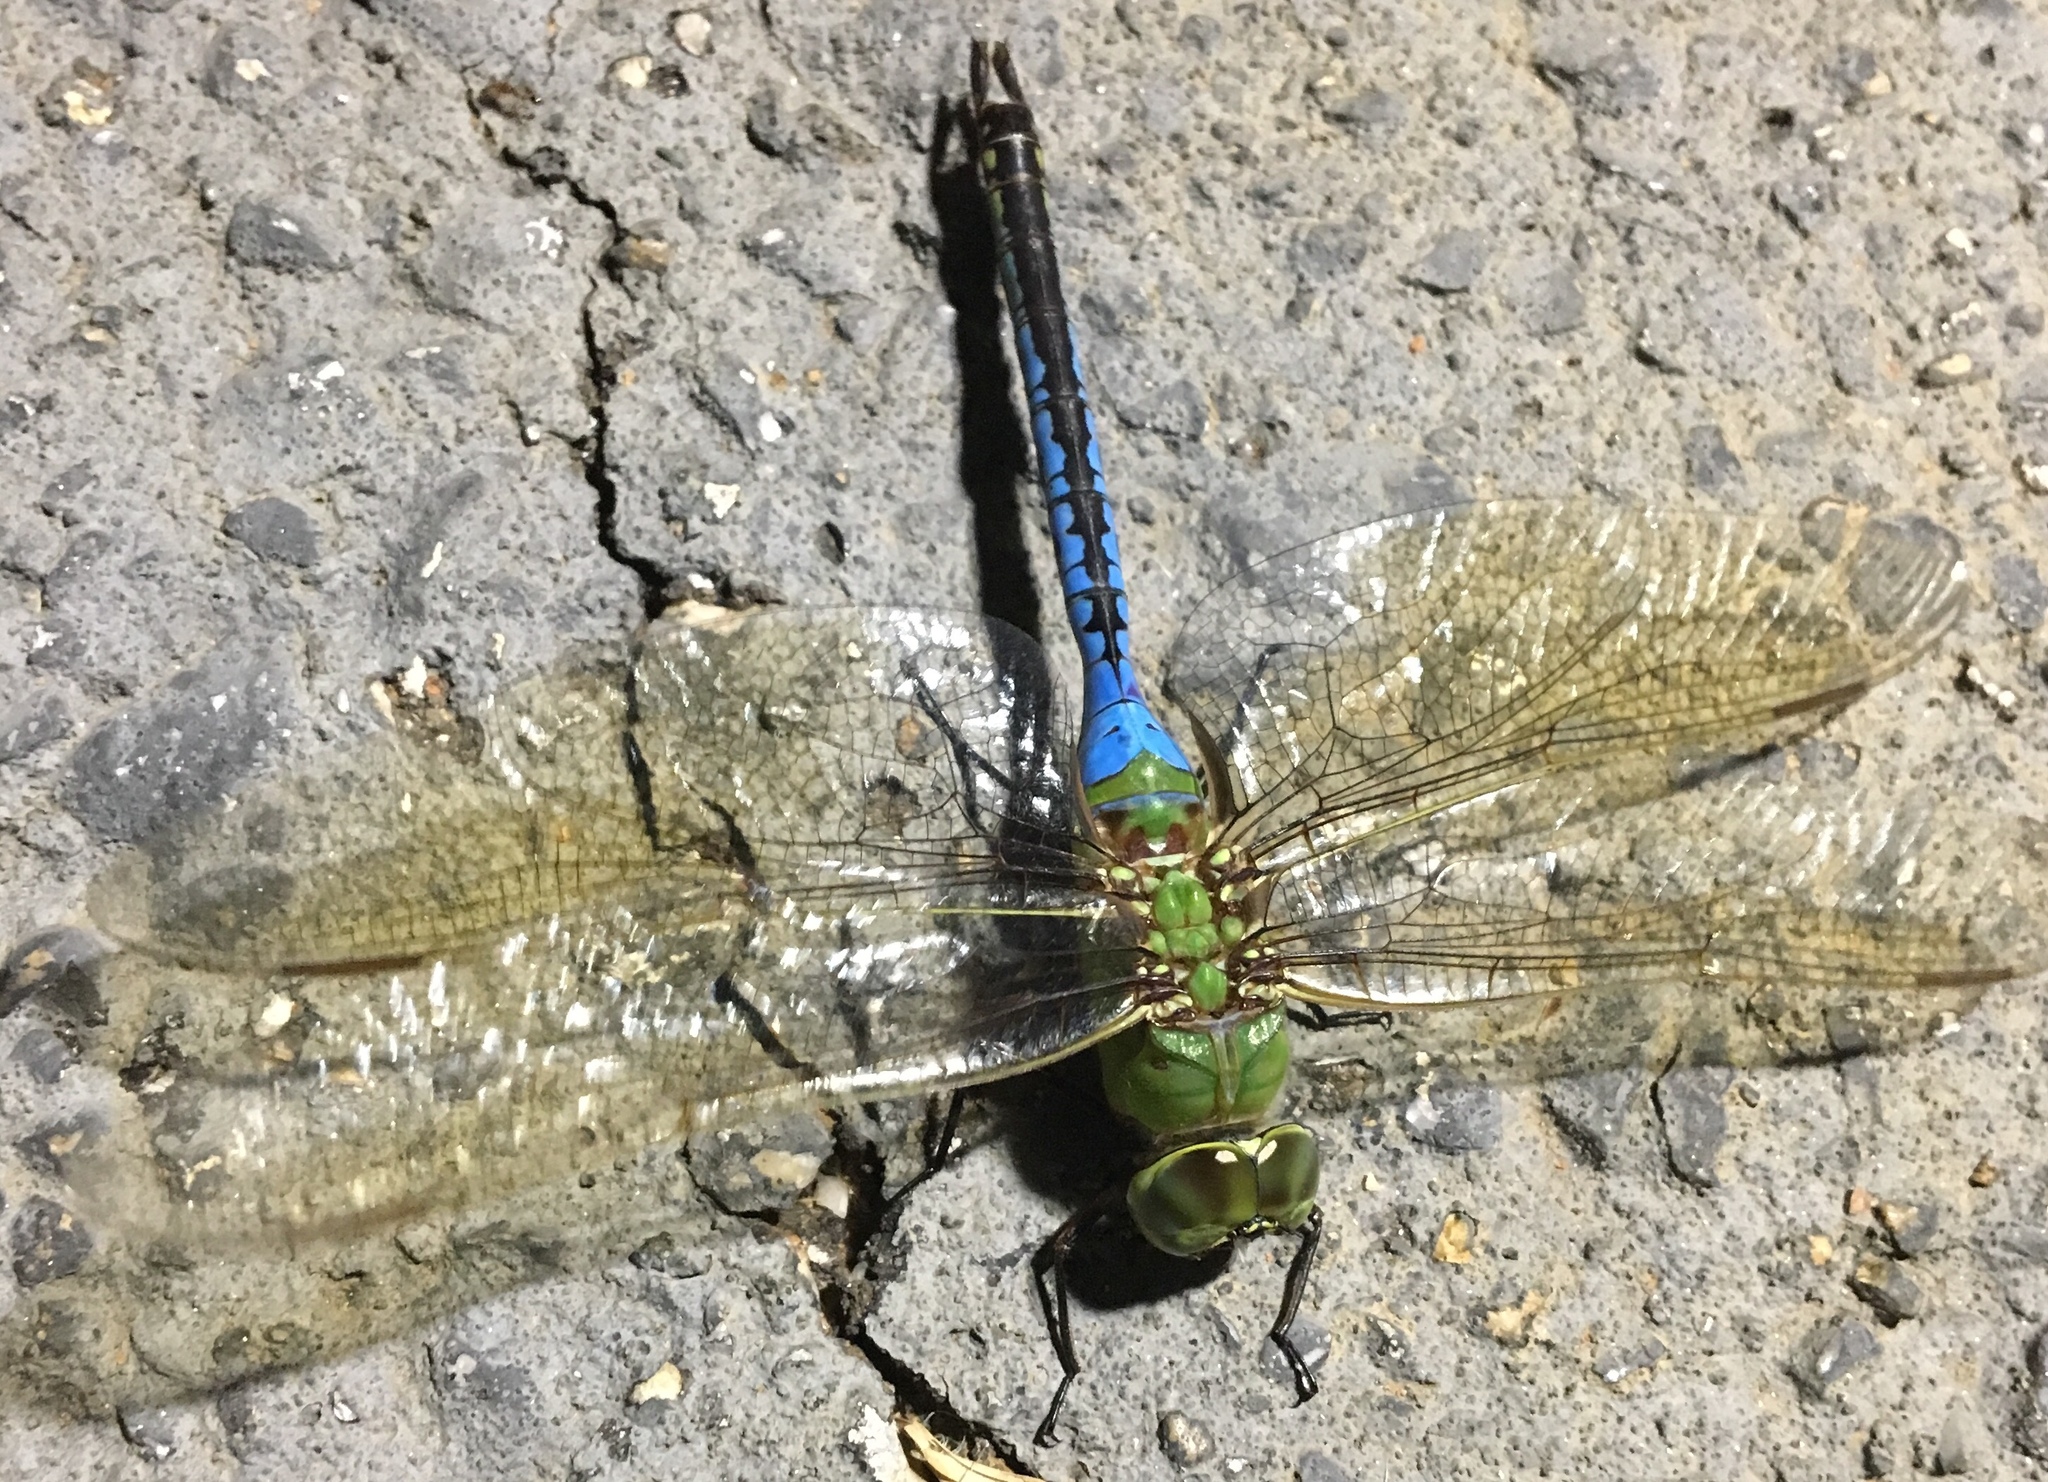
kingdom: Animalia
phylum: Arthropoda
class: Insecta
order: Odonata
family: Aeshnidae
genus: Anax
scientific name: Anax junius
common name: Common green darner
